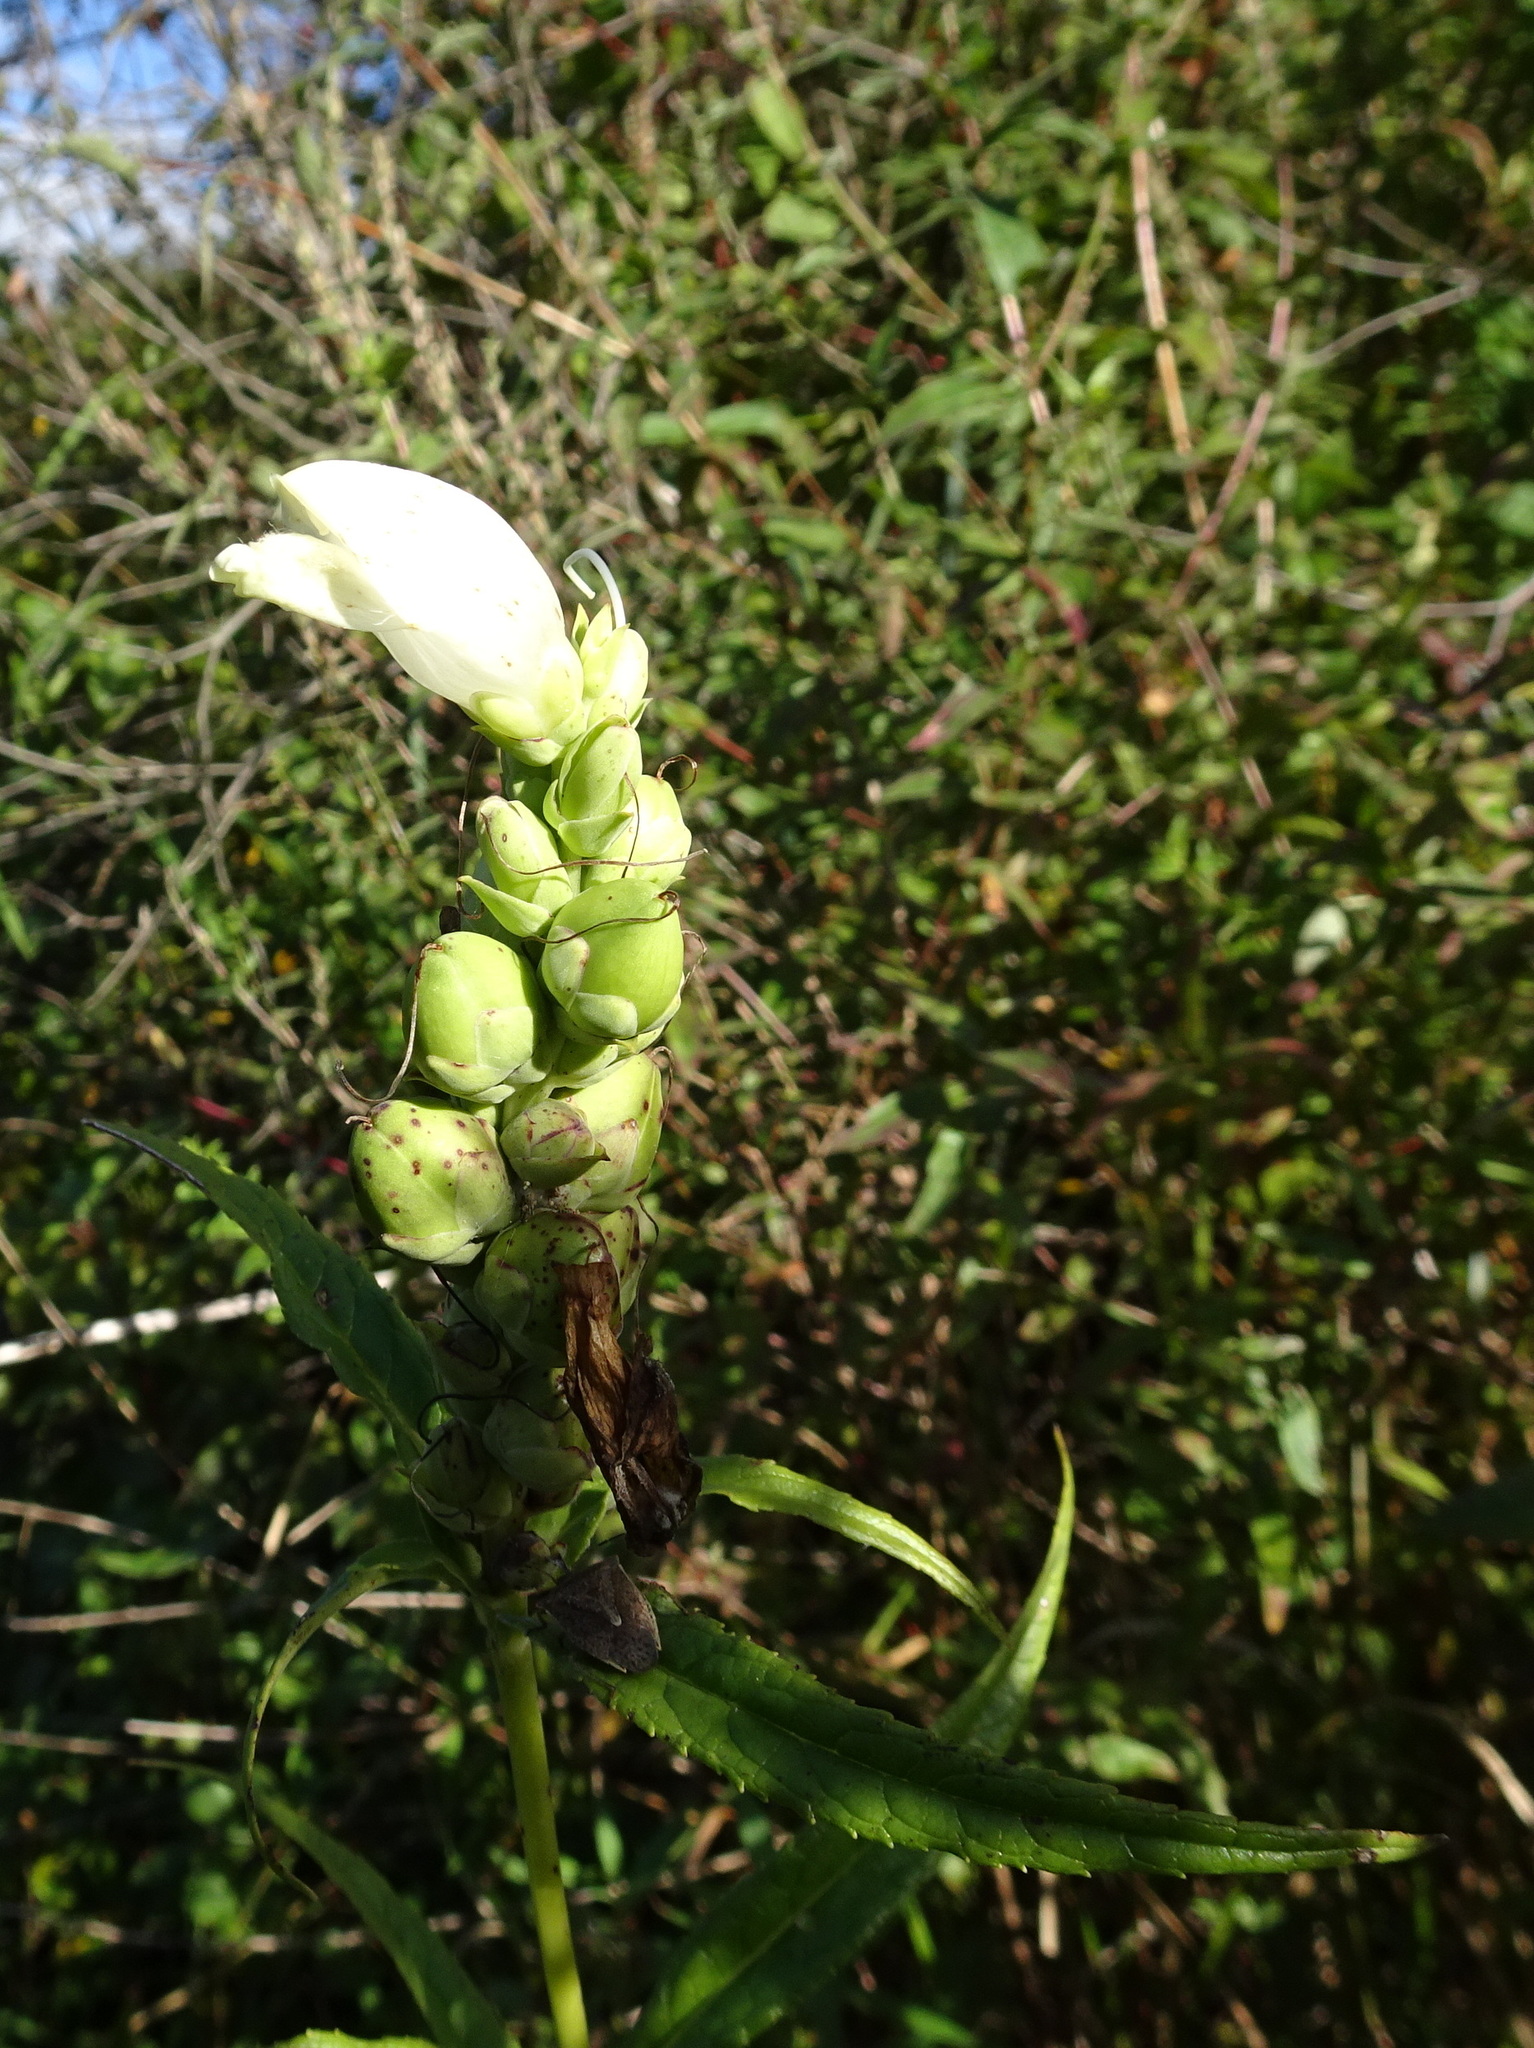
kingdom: Plantae
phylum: Tracheophyta
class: Magnoliopsida
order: Lamiales
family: Plantaginaceae
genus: Chelone
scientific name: Chelone glabra
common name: Snakehead
